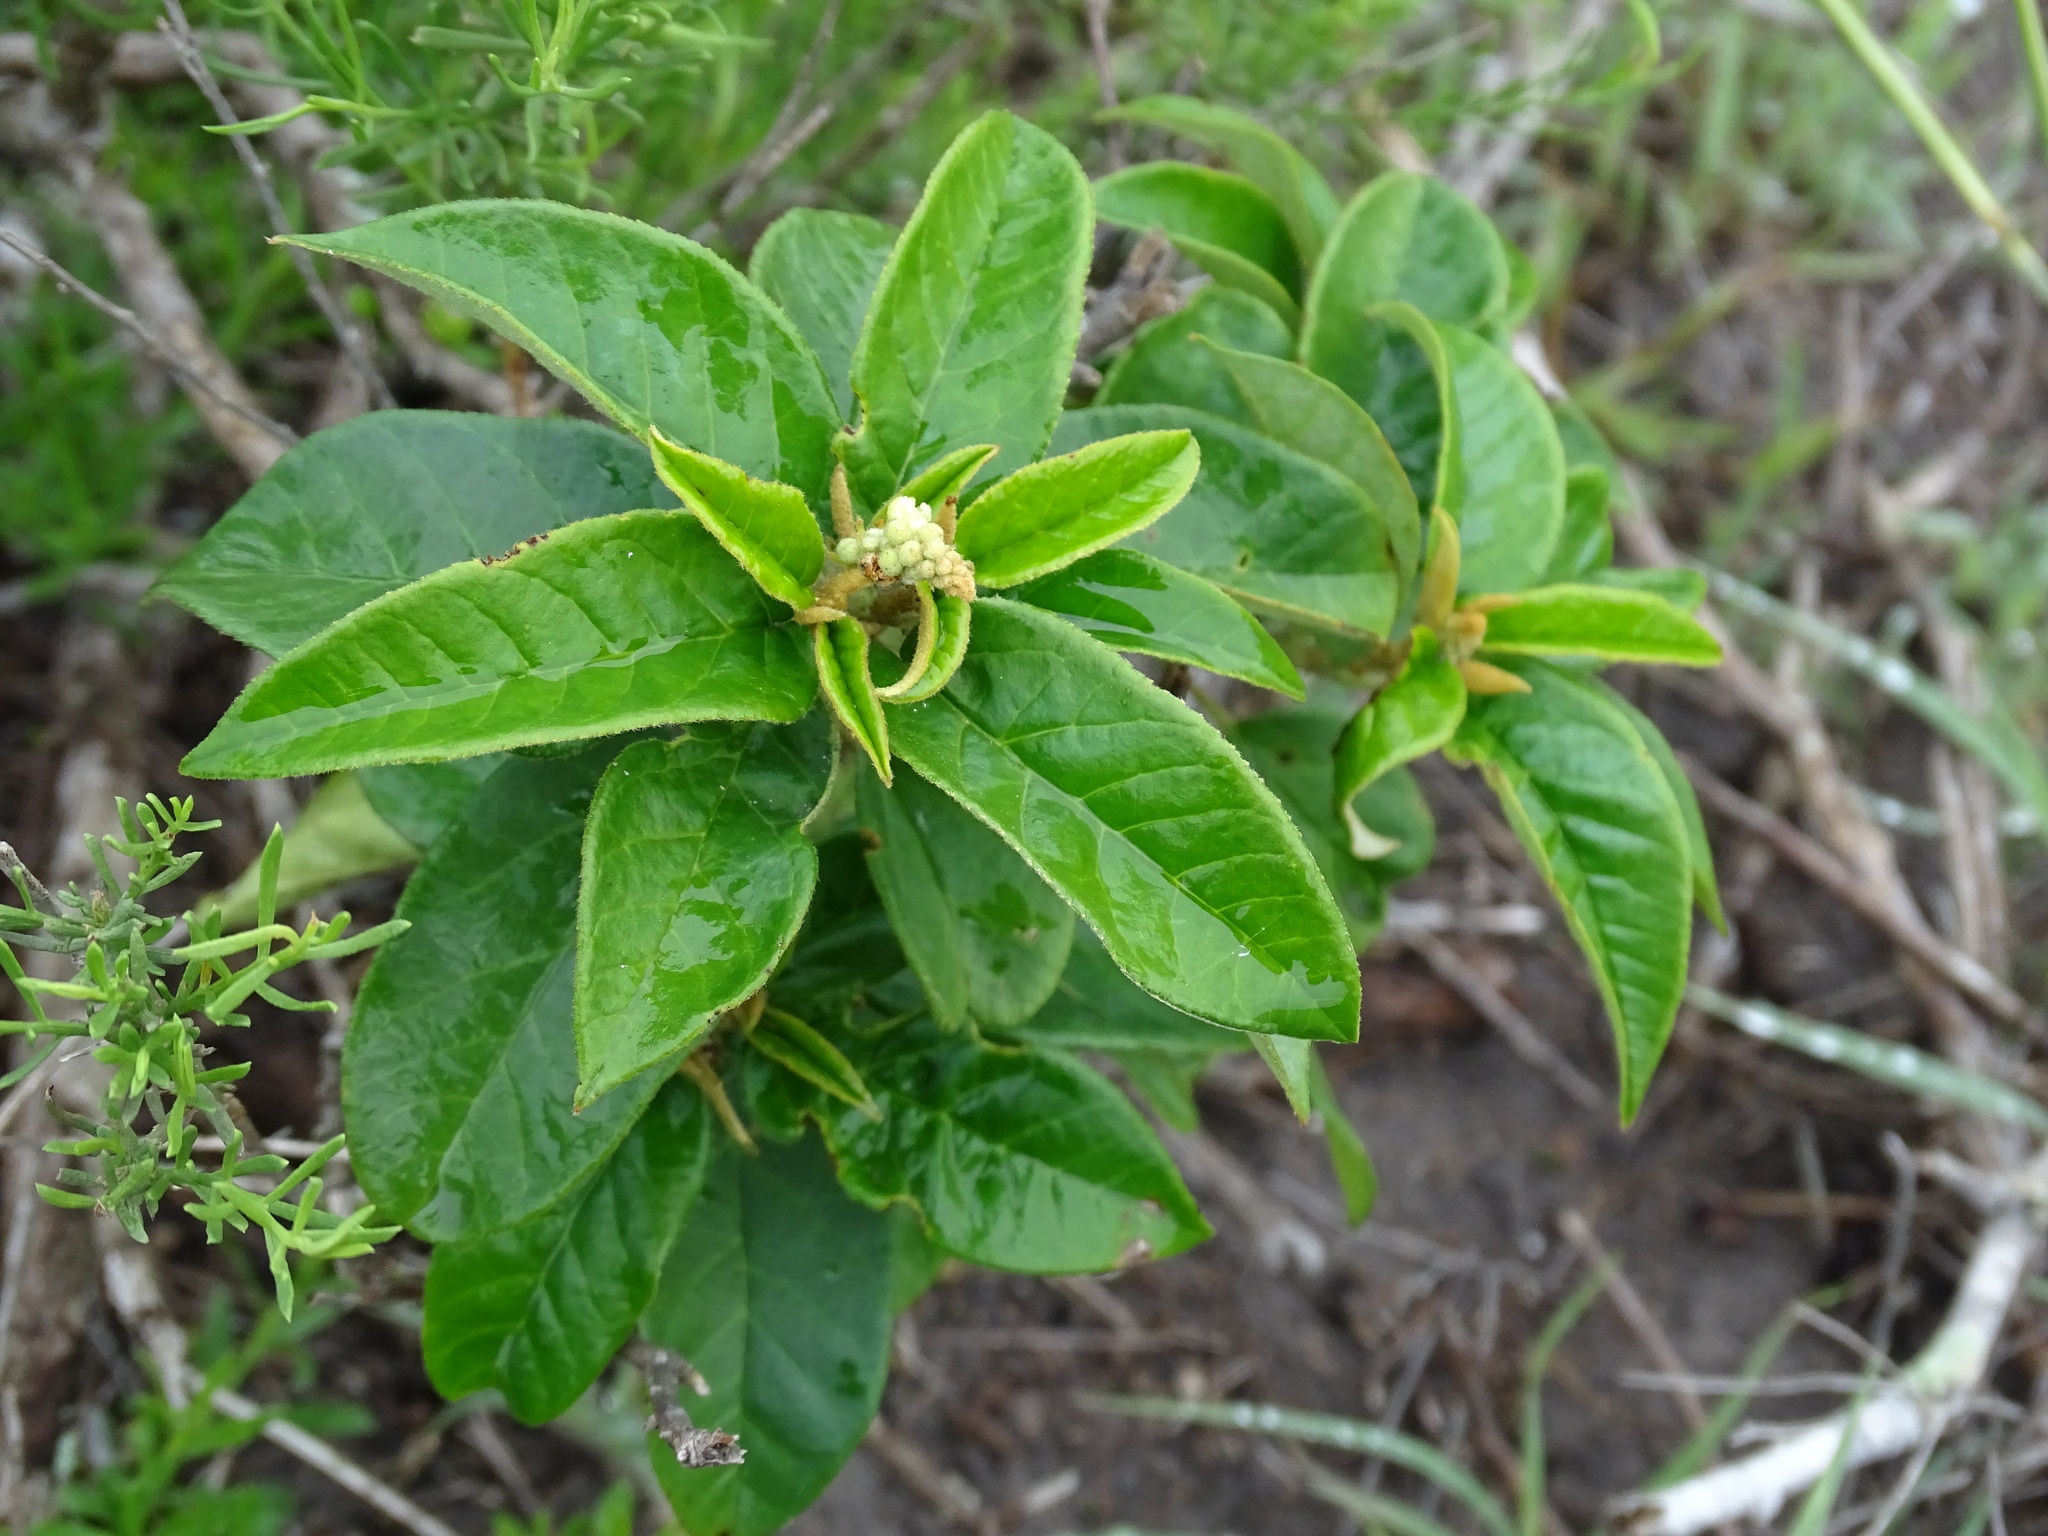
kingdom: Plantae
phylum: Tracheophyta
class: Magnoliopsida
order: Malpighiales
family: Euphorbiaceae
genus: Croton
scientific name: Croton cortesianus
